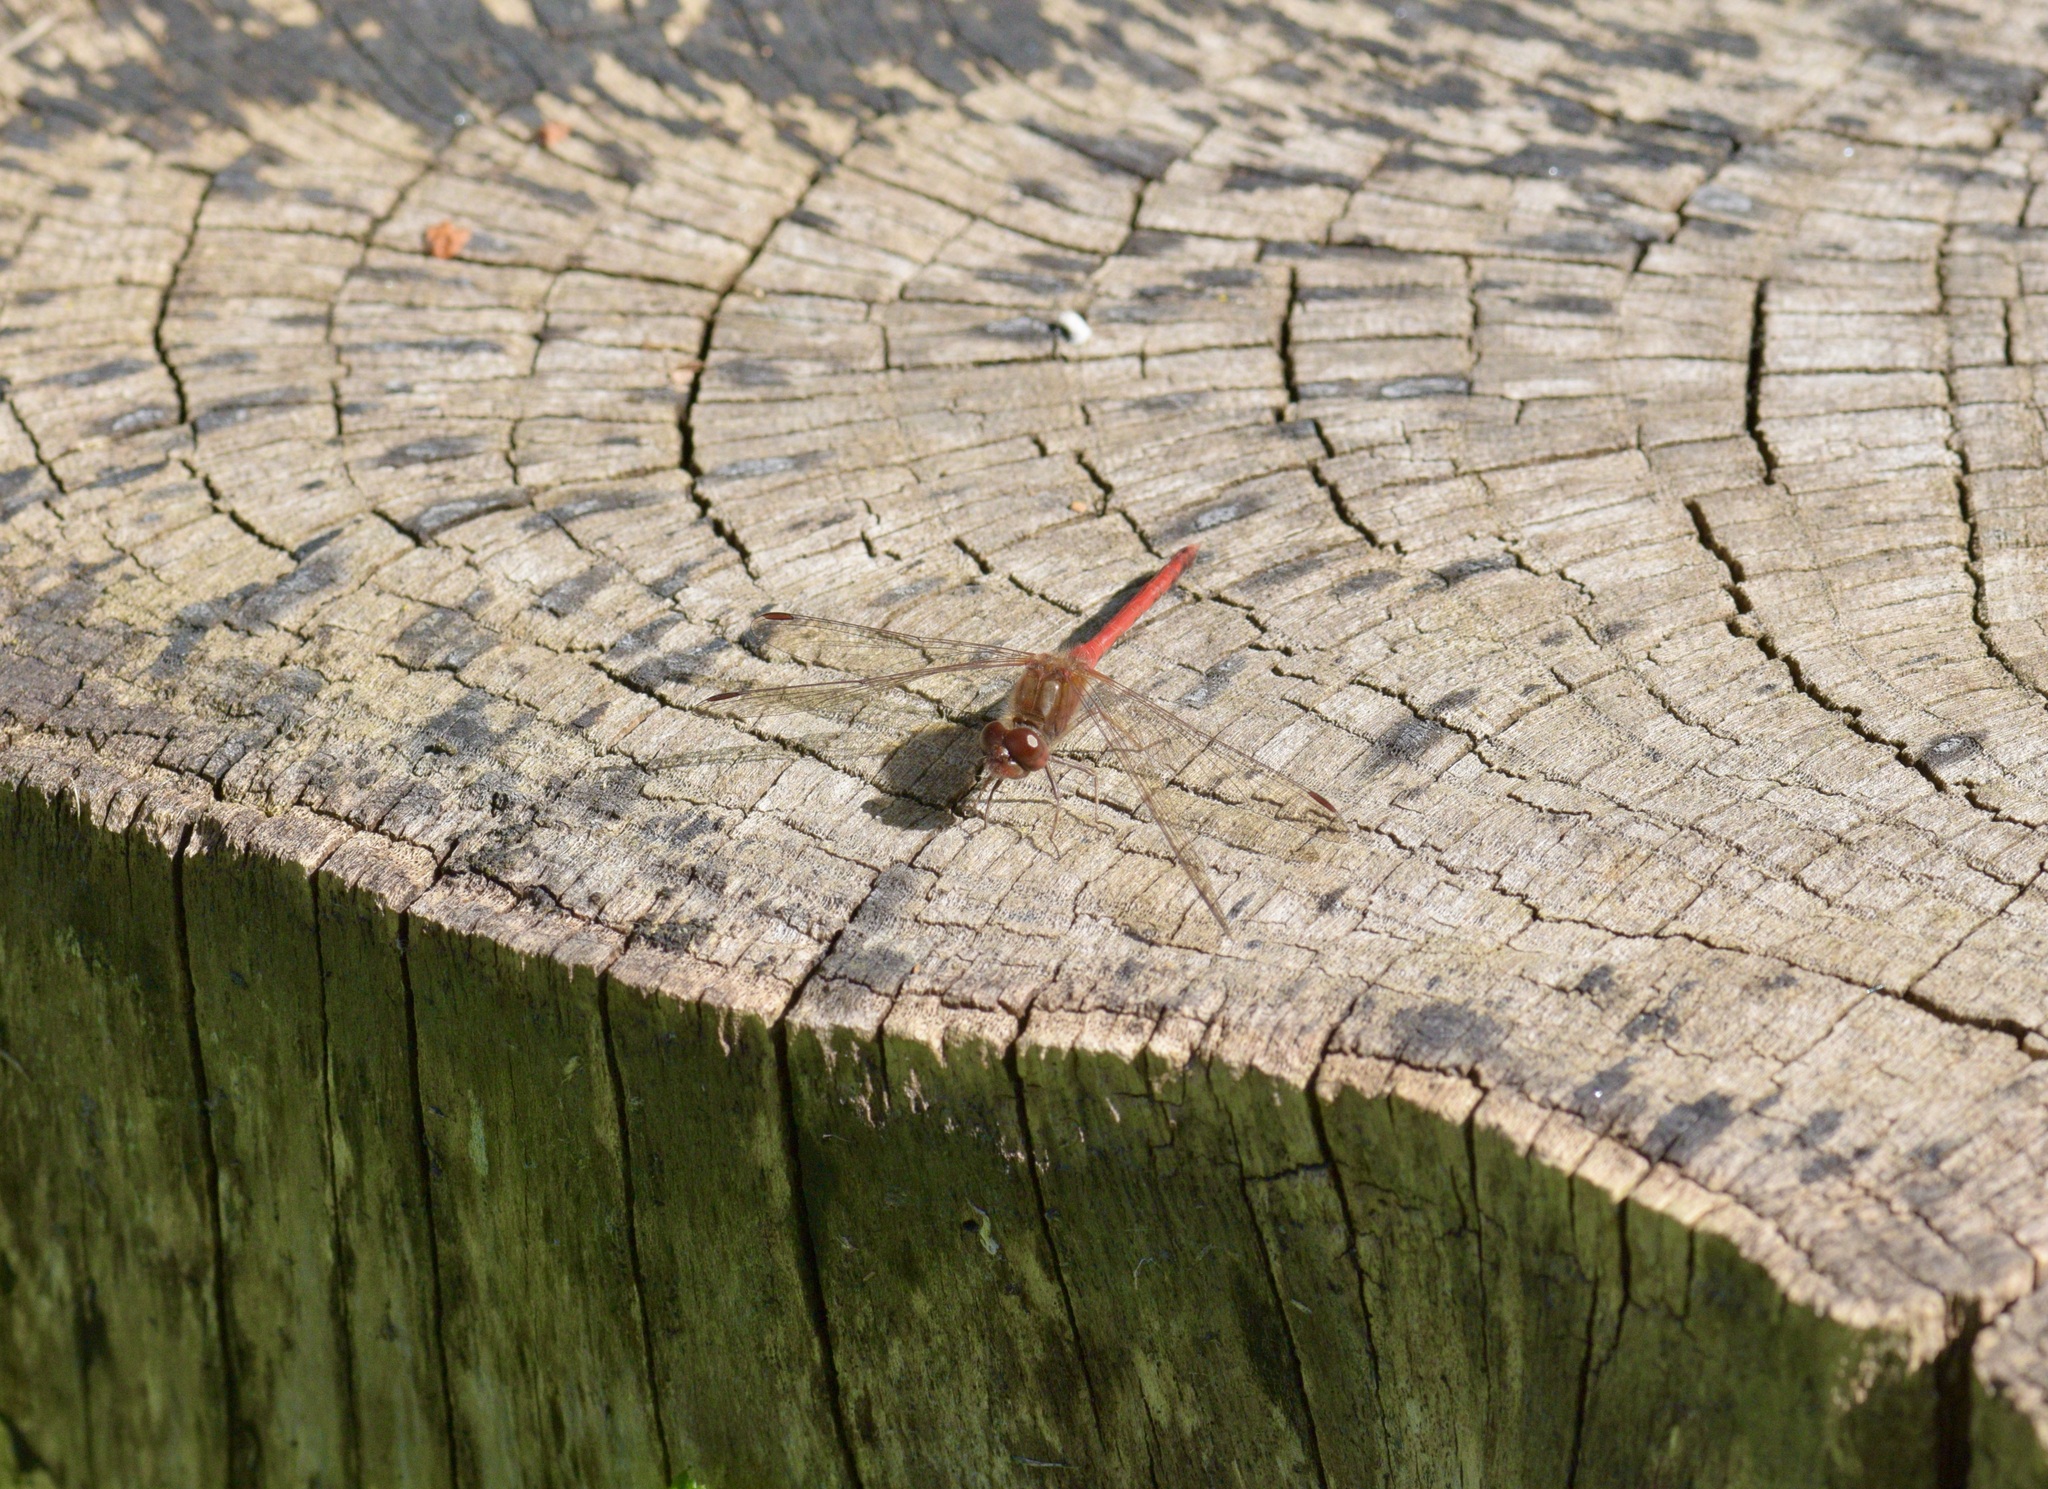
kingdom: Animalia
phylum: Arthropoda
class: Insecta
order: Odonata
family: Libellulidae
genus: Sympetrum
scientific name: Sympetrum vicinum
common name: Autumn meadowhawk
